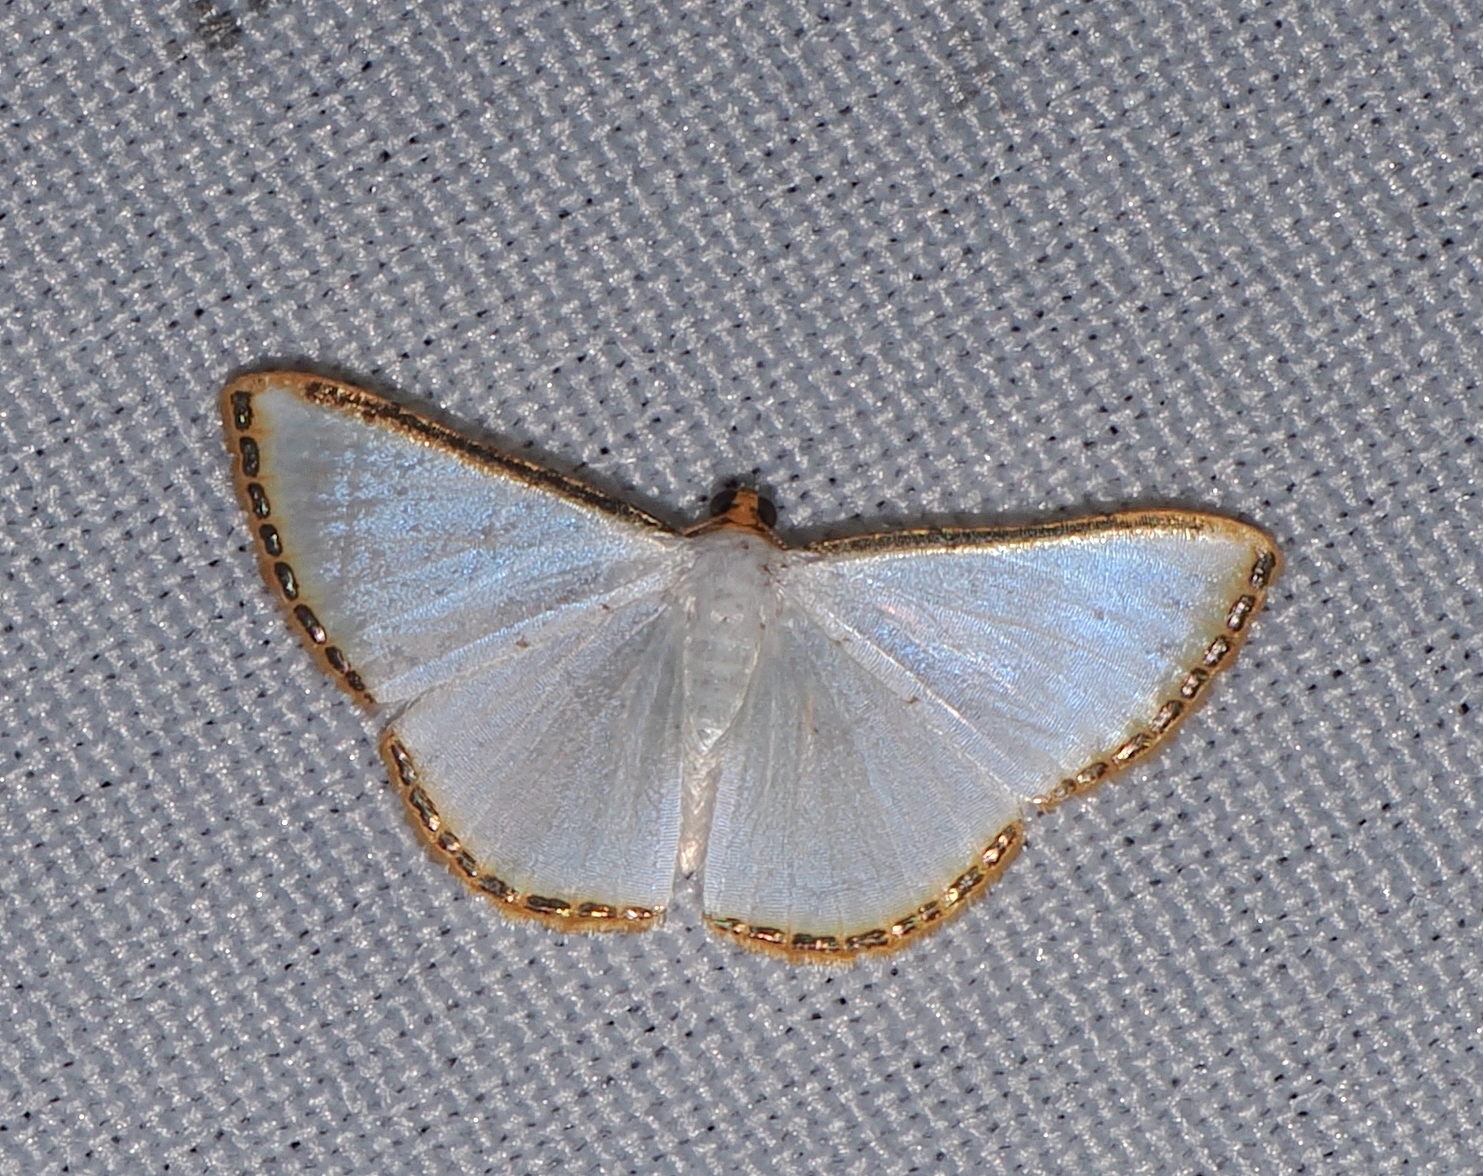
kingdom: Animalia
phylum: Arthropoda
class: Insecta
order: Lepidoptera
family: Geometridae
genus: Leuciris
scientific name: Leuciris fimbriaria
